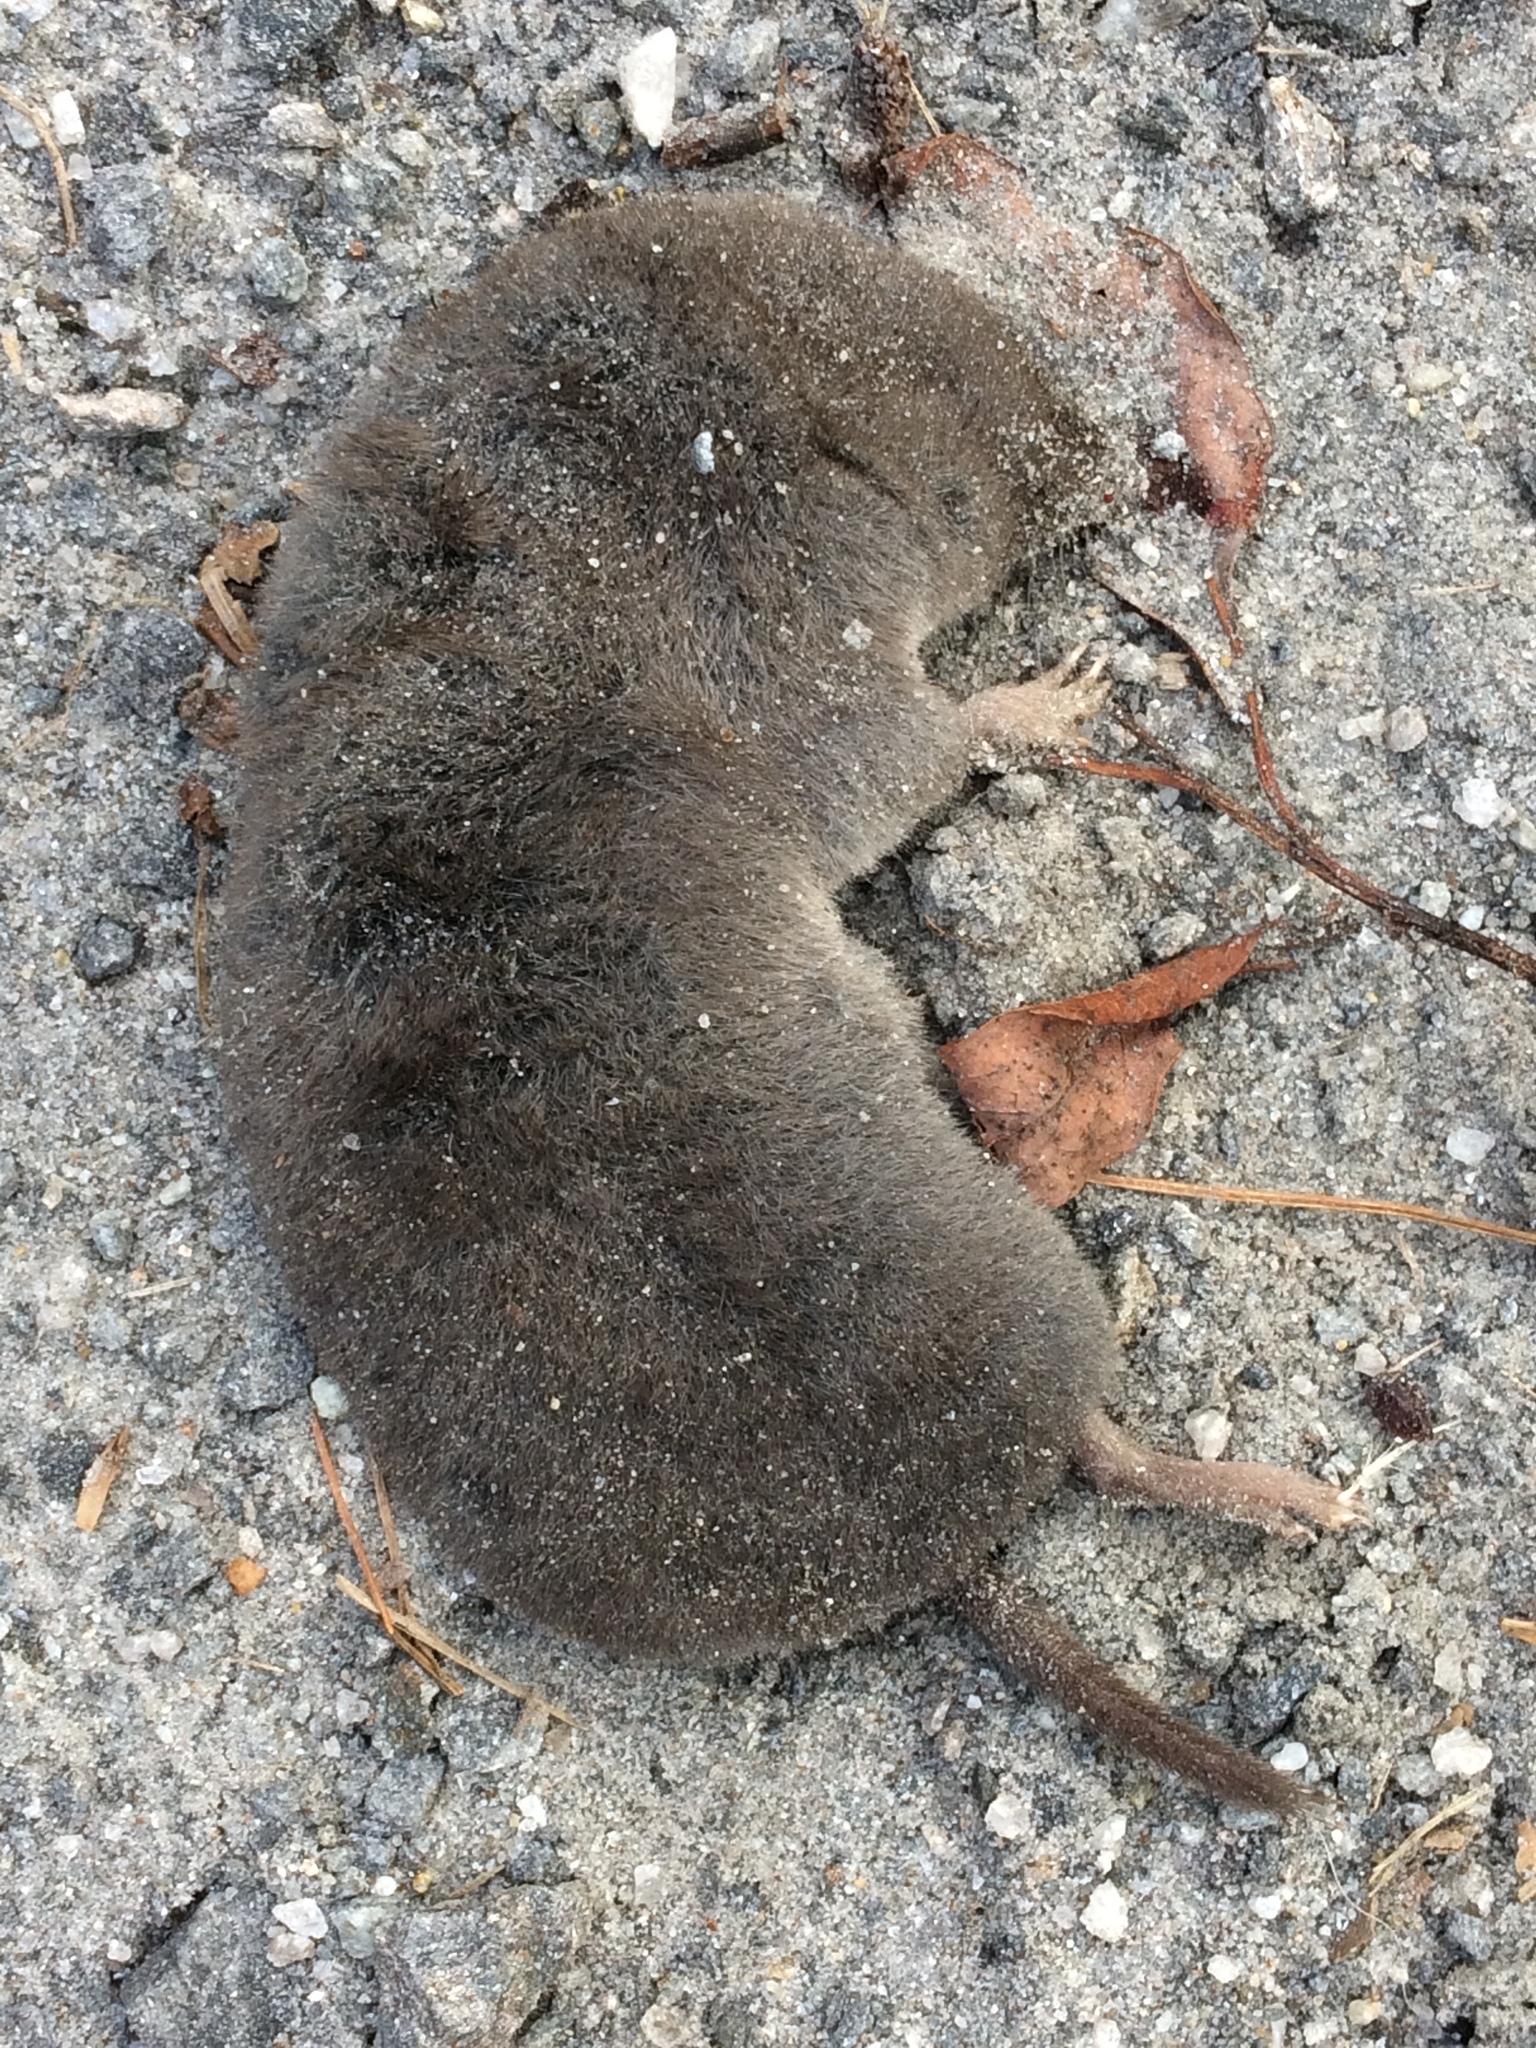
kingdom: Animalia
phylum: Chordata
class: Mammalia
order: Soricomorpha
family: Soricidae
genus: Blarina
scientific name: Blarina brevicauda
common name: Northern short-tailed shrew
